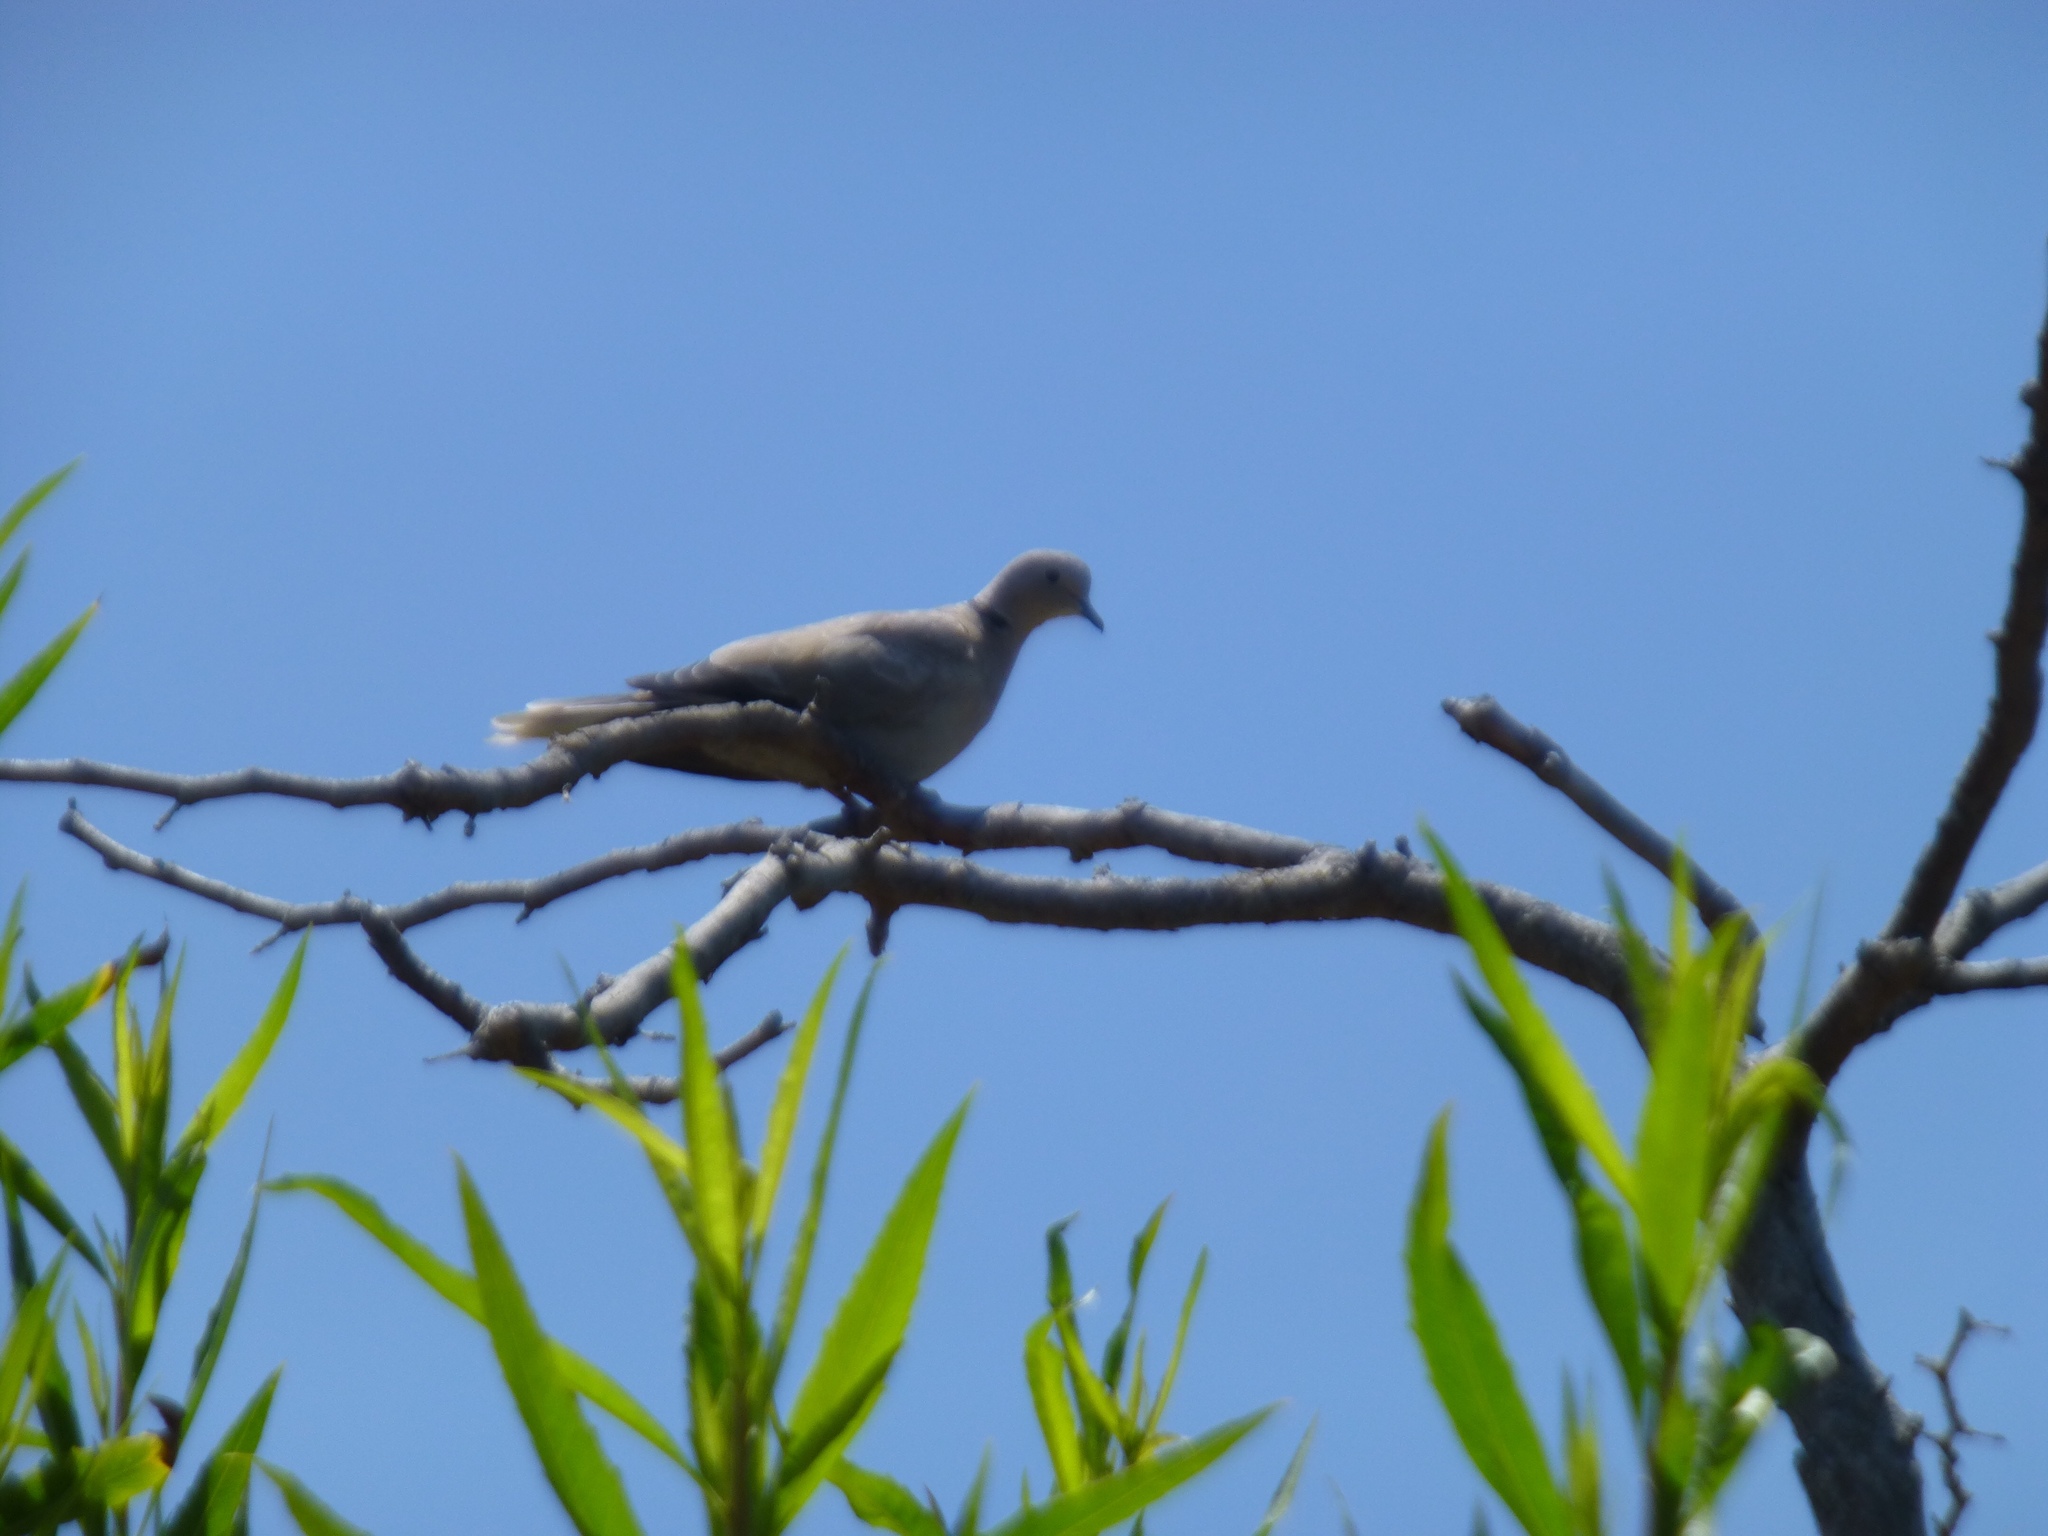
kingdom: Animalia
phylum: Chordata
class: Aves
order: Columbiformes
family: Columbidae
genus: Streptopelia
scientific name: Streptopelia decaocto
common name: Eurasian collared dove
